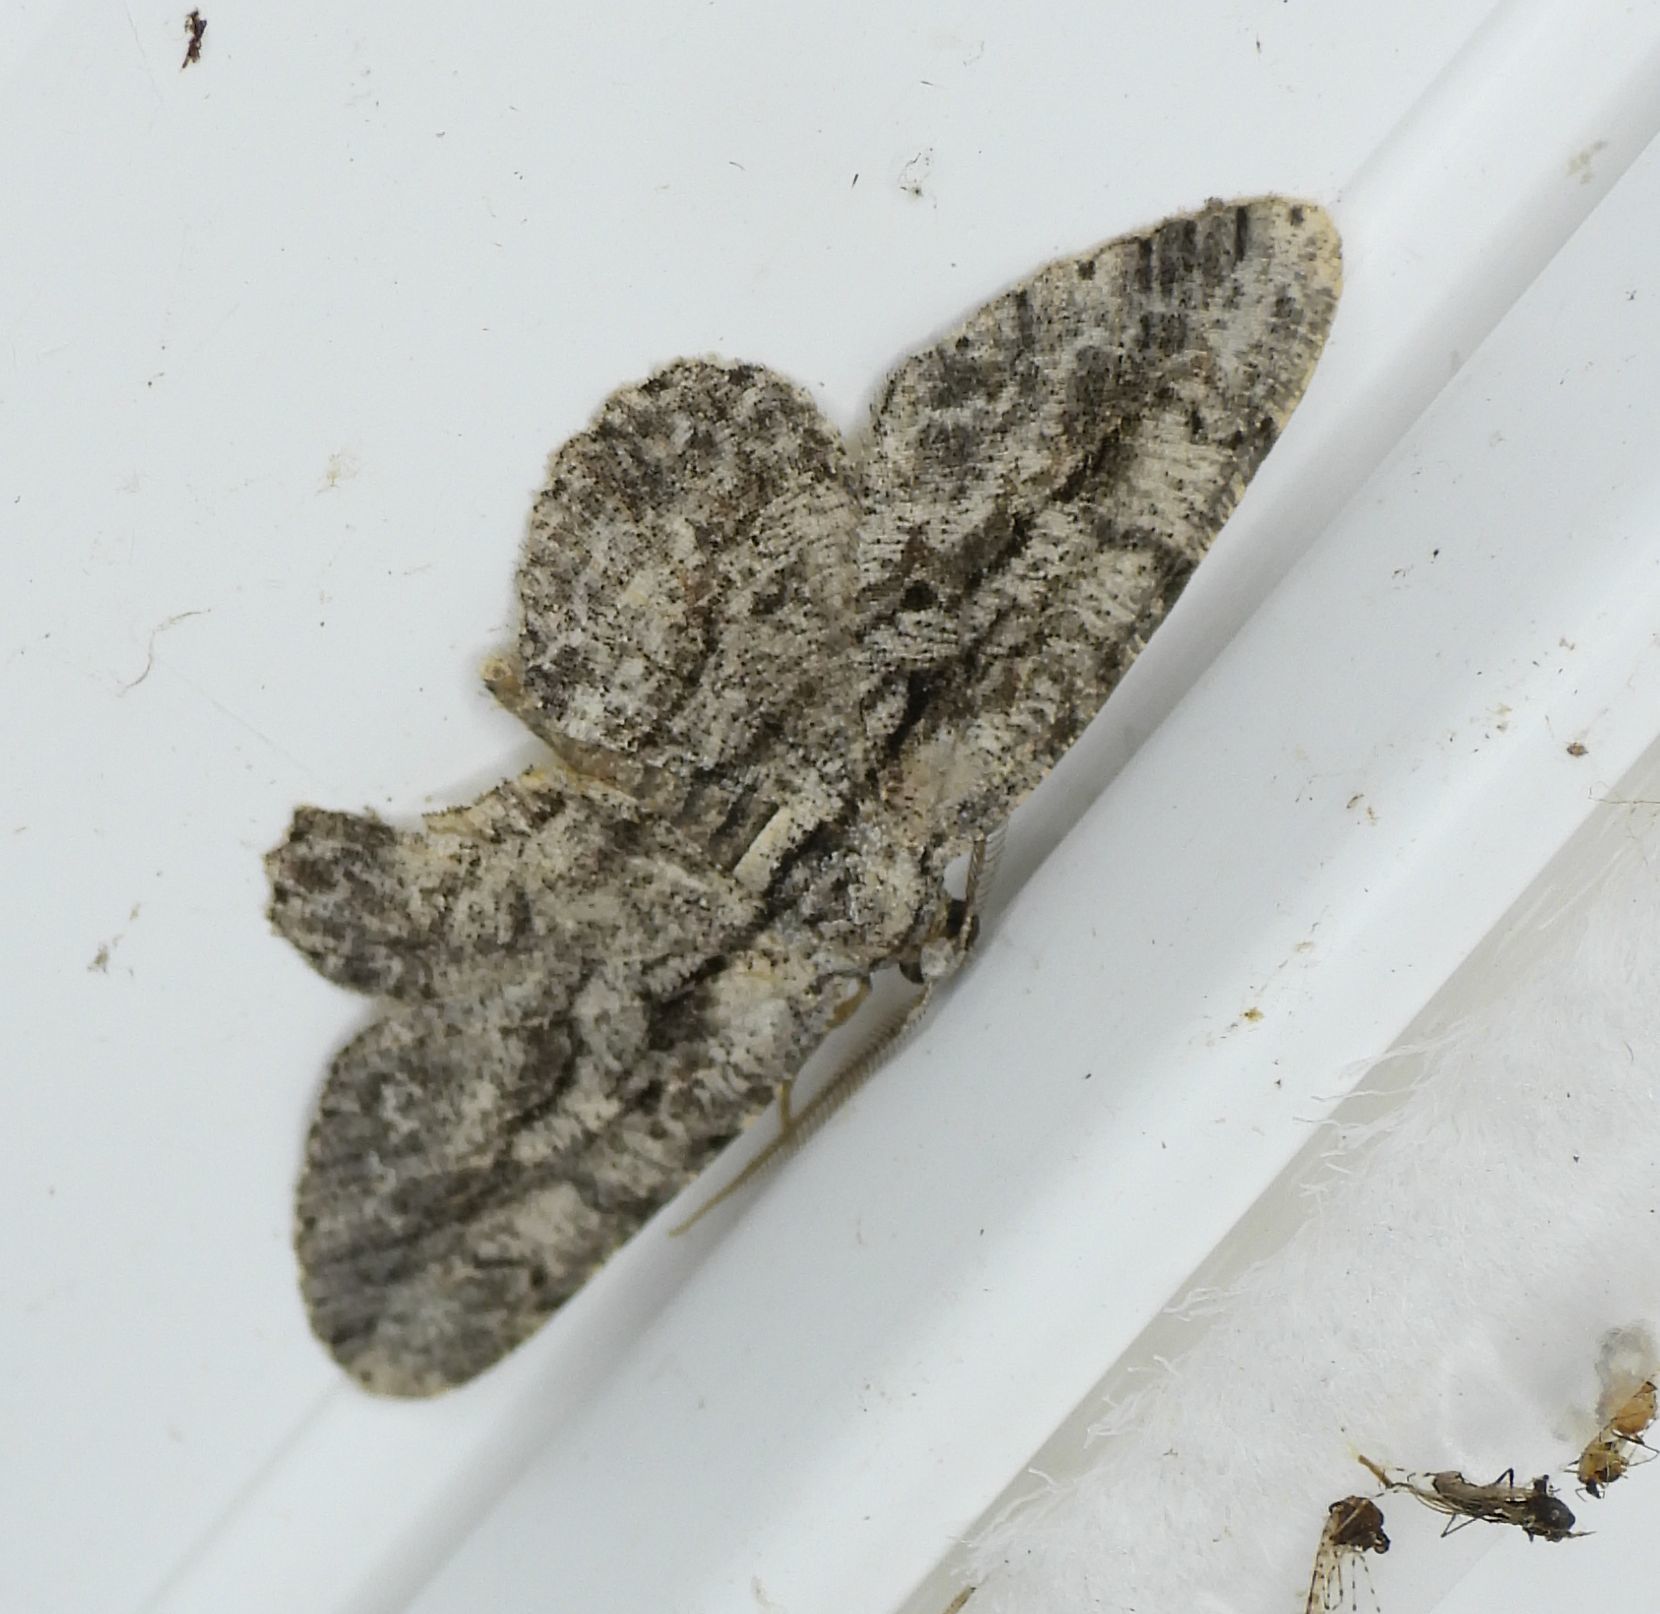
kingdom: Animalia
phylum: Arthropoda
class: Insecta
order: Lepidoptera
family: Geometridae
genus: Anavitrinella
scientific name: Anavitrinella pampinaria
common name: Common gray
